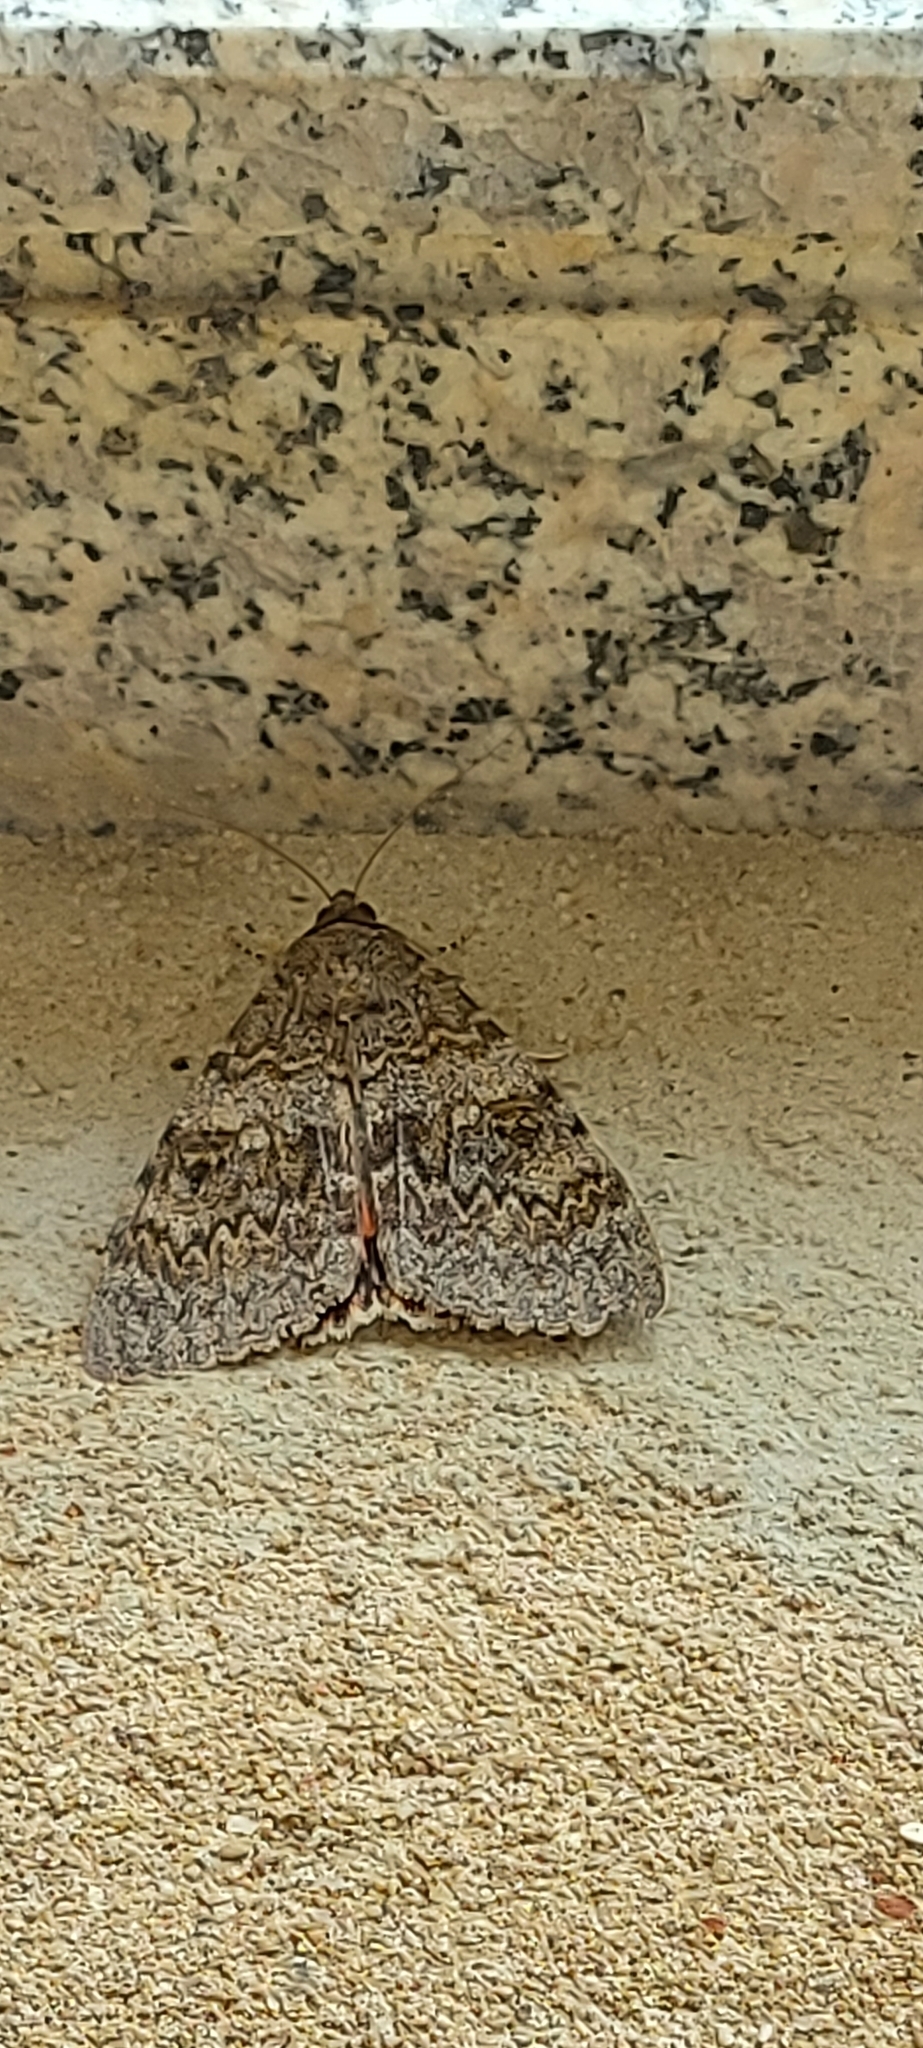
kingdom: Animalia
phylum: Arthropoda
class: Insecta
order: Lepidoptera
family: Erebidae
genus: Catocala
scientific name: Catocala elocata
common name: French red underwing
